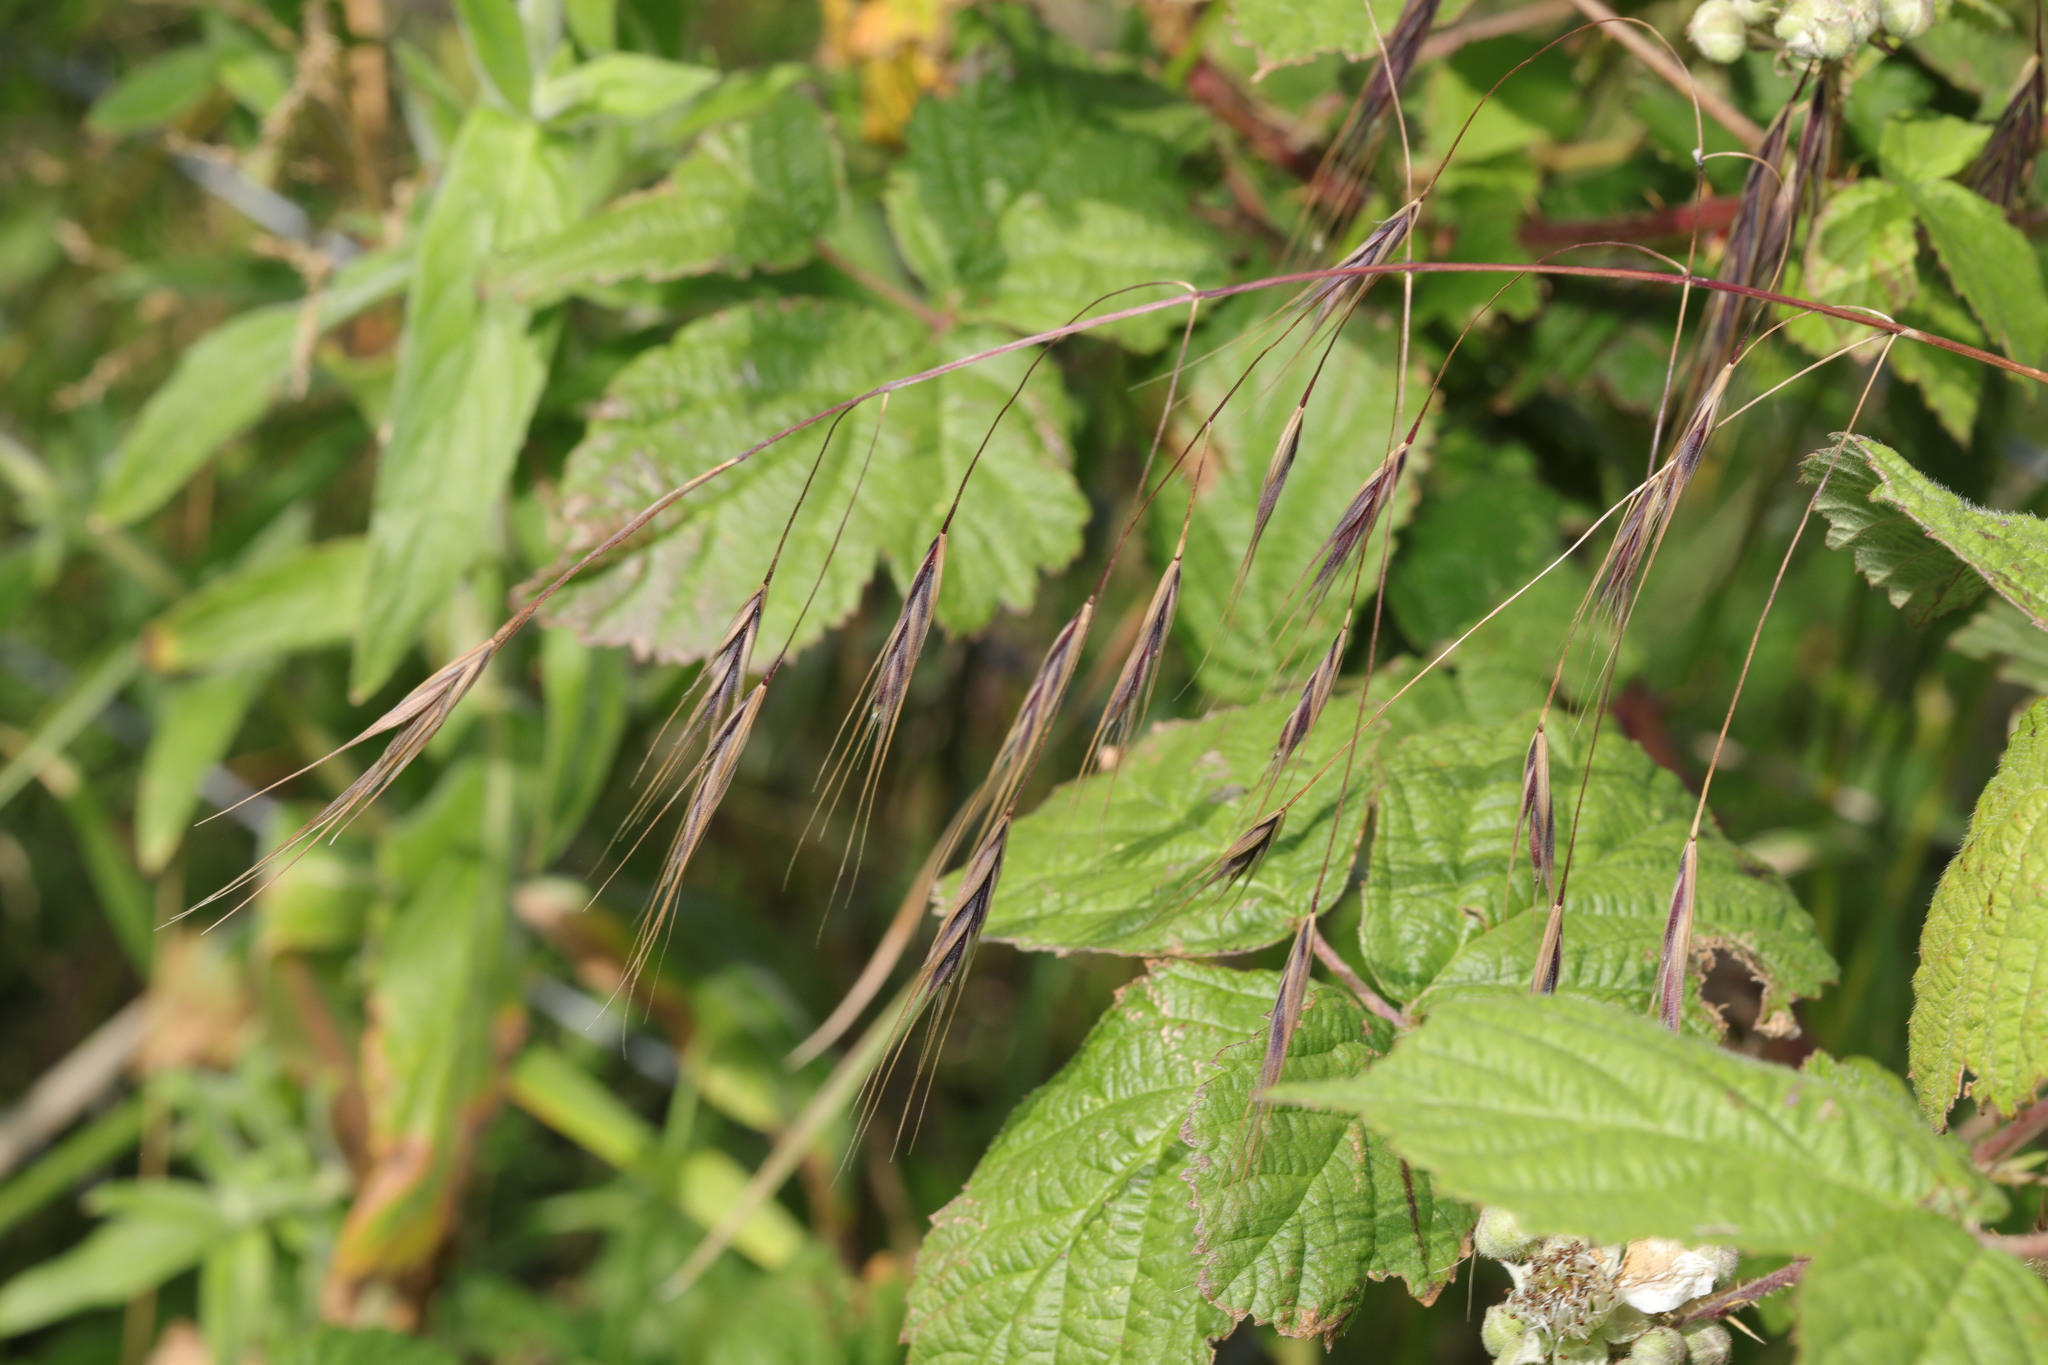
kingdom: Plantae
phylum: Tracheophyta
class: Liliopsida
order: Poales
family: Poaceae
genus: Bromus
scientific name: Bromus sterilis
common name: Poverty brome
